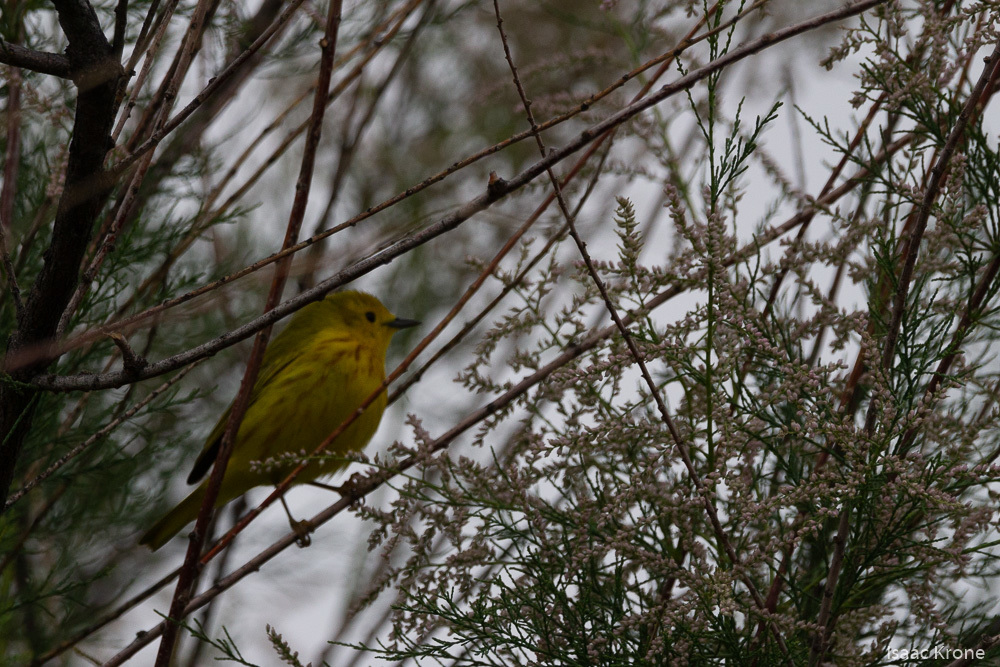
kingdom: Animalia
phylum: Chordata
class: Aves
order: Passeriformes
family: Parulidae
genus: Setophaga
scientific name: Setophaga petechia
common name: Yellow warbler
